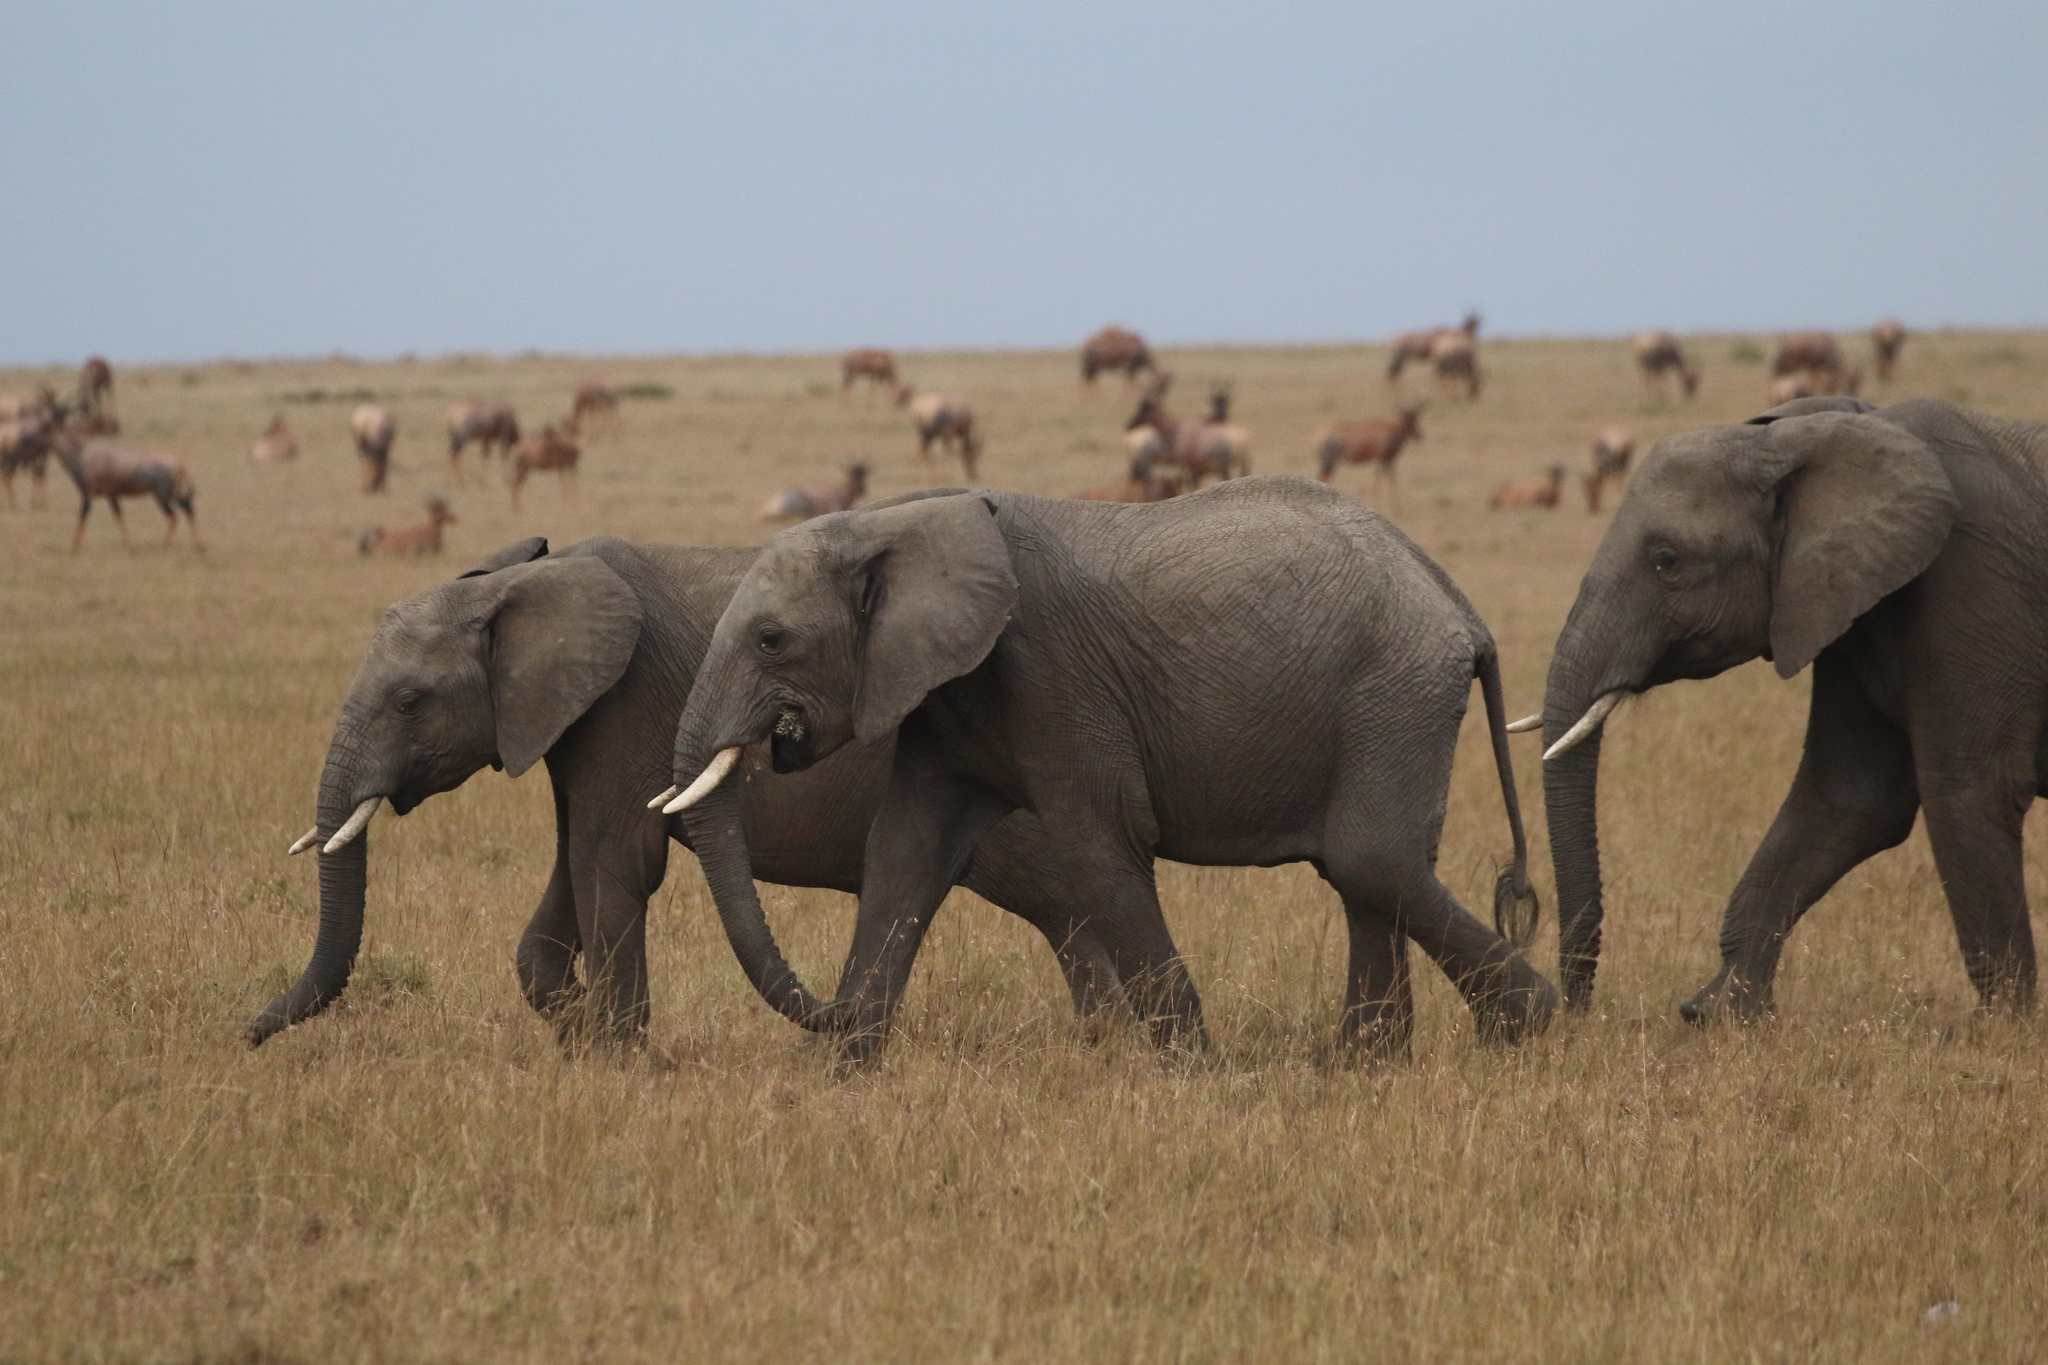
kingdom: Animalia
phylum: Chordata
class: Mammalia
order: Proboscidea
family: Elephantidae
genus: Loxodonta
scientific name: Loxodonta africana
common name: African elephant
